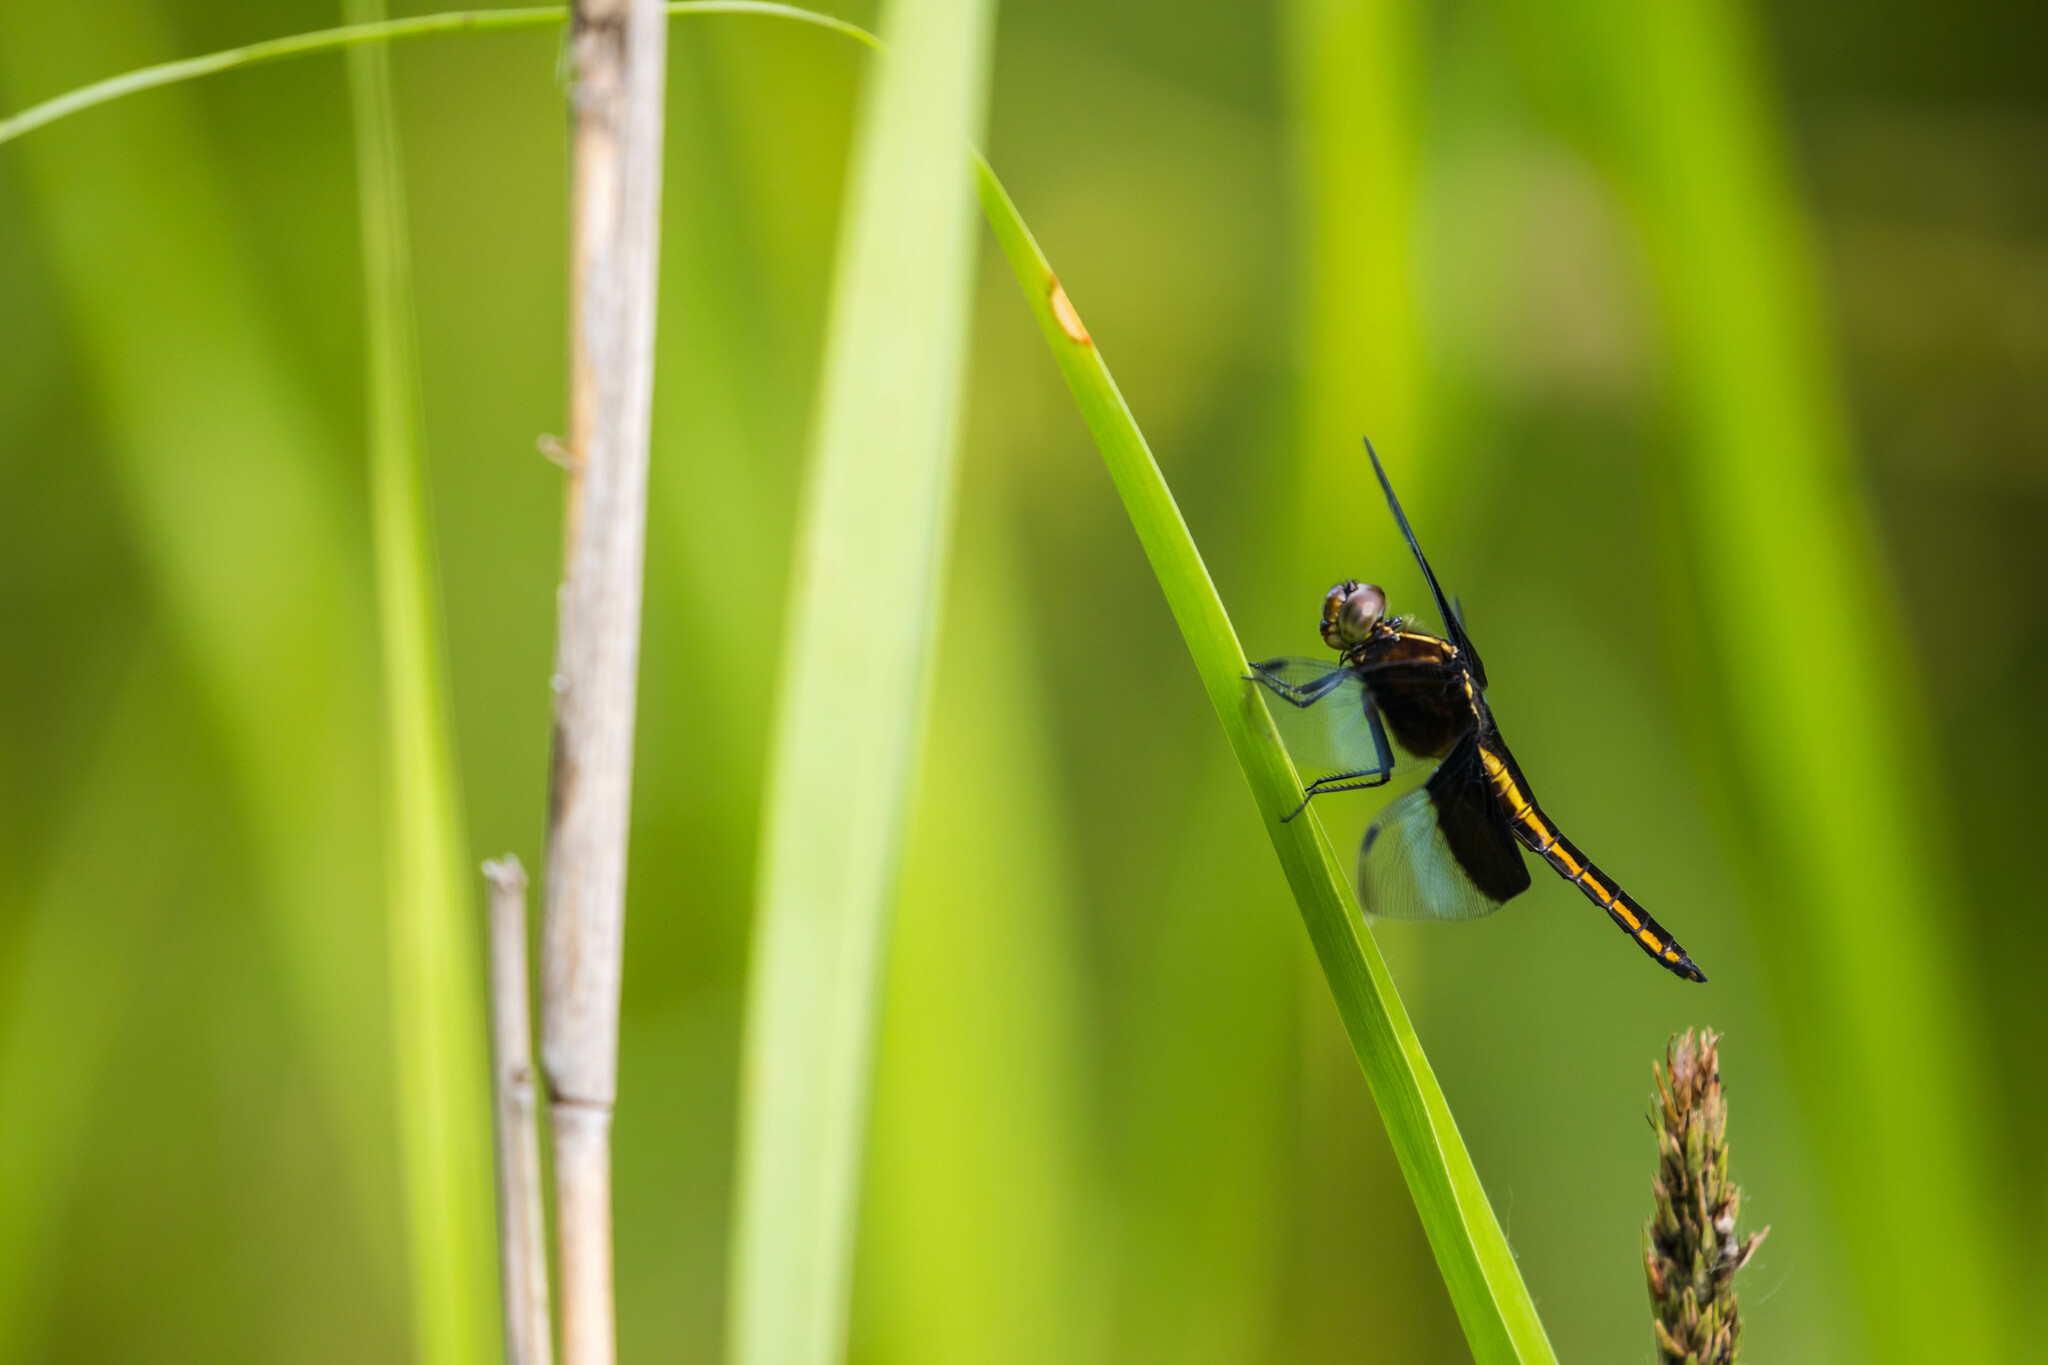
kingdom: Animalia
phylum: Arthropoda
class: Insecta
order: Odonata
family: Libellulidae
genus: Libellula
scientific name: Libellula luctuosa
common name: Widow skimmer
